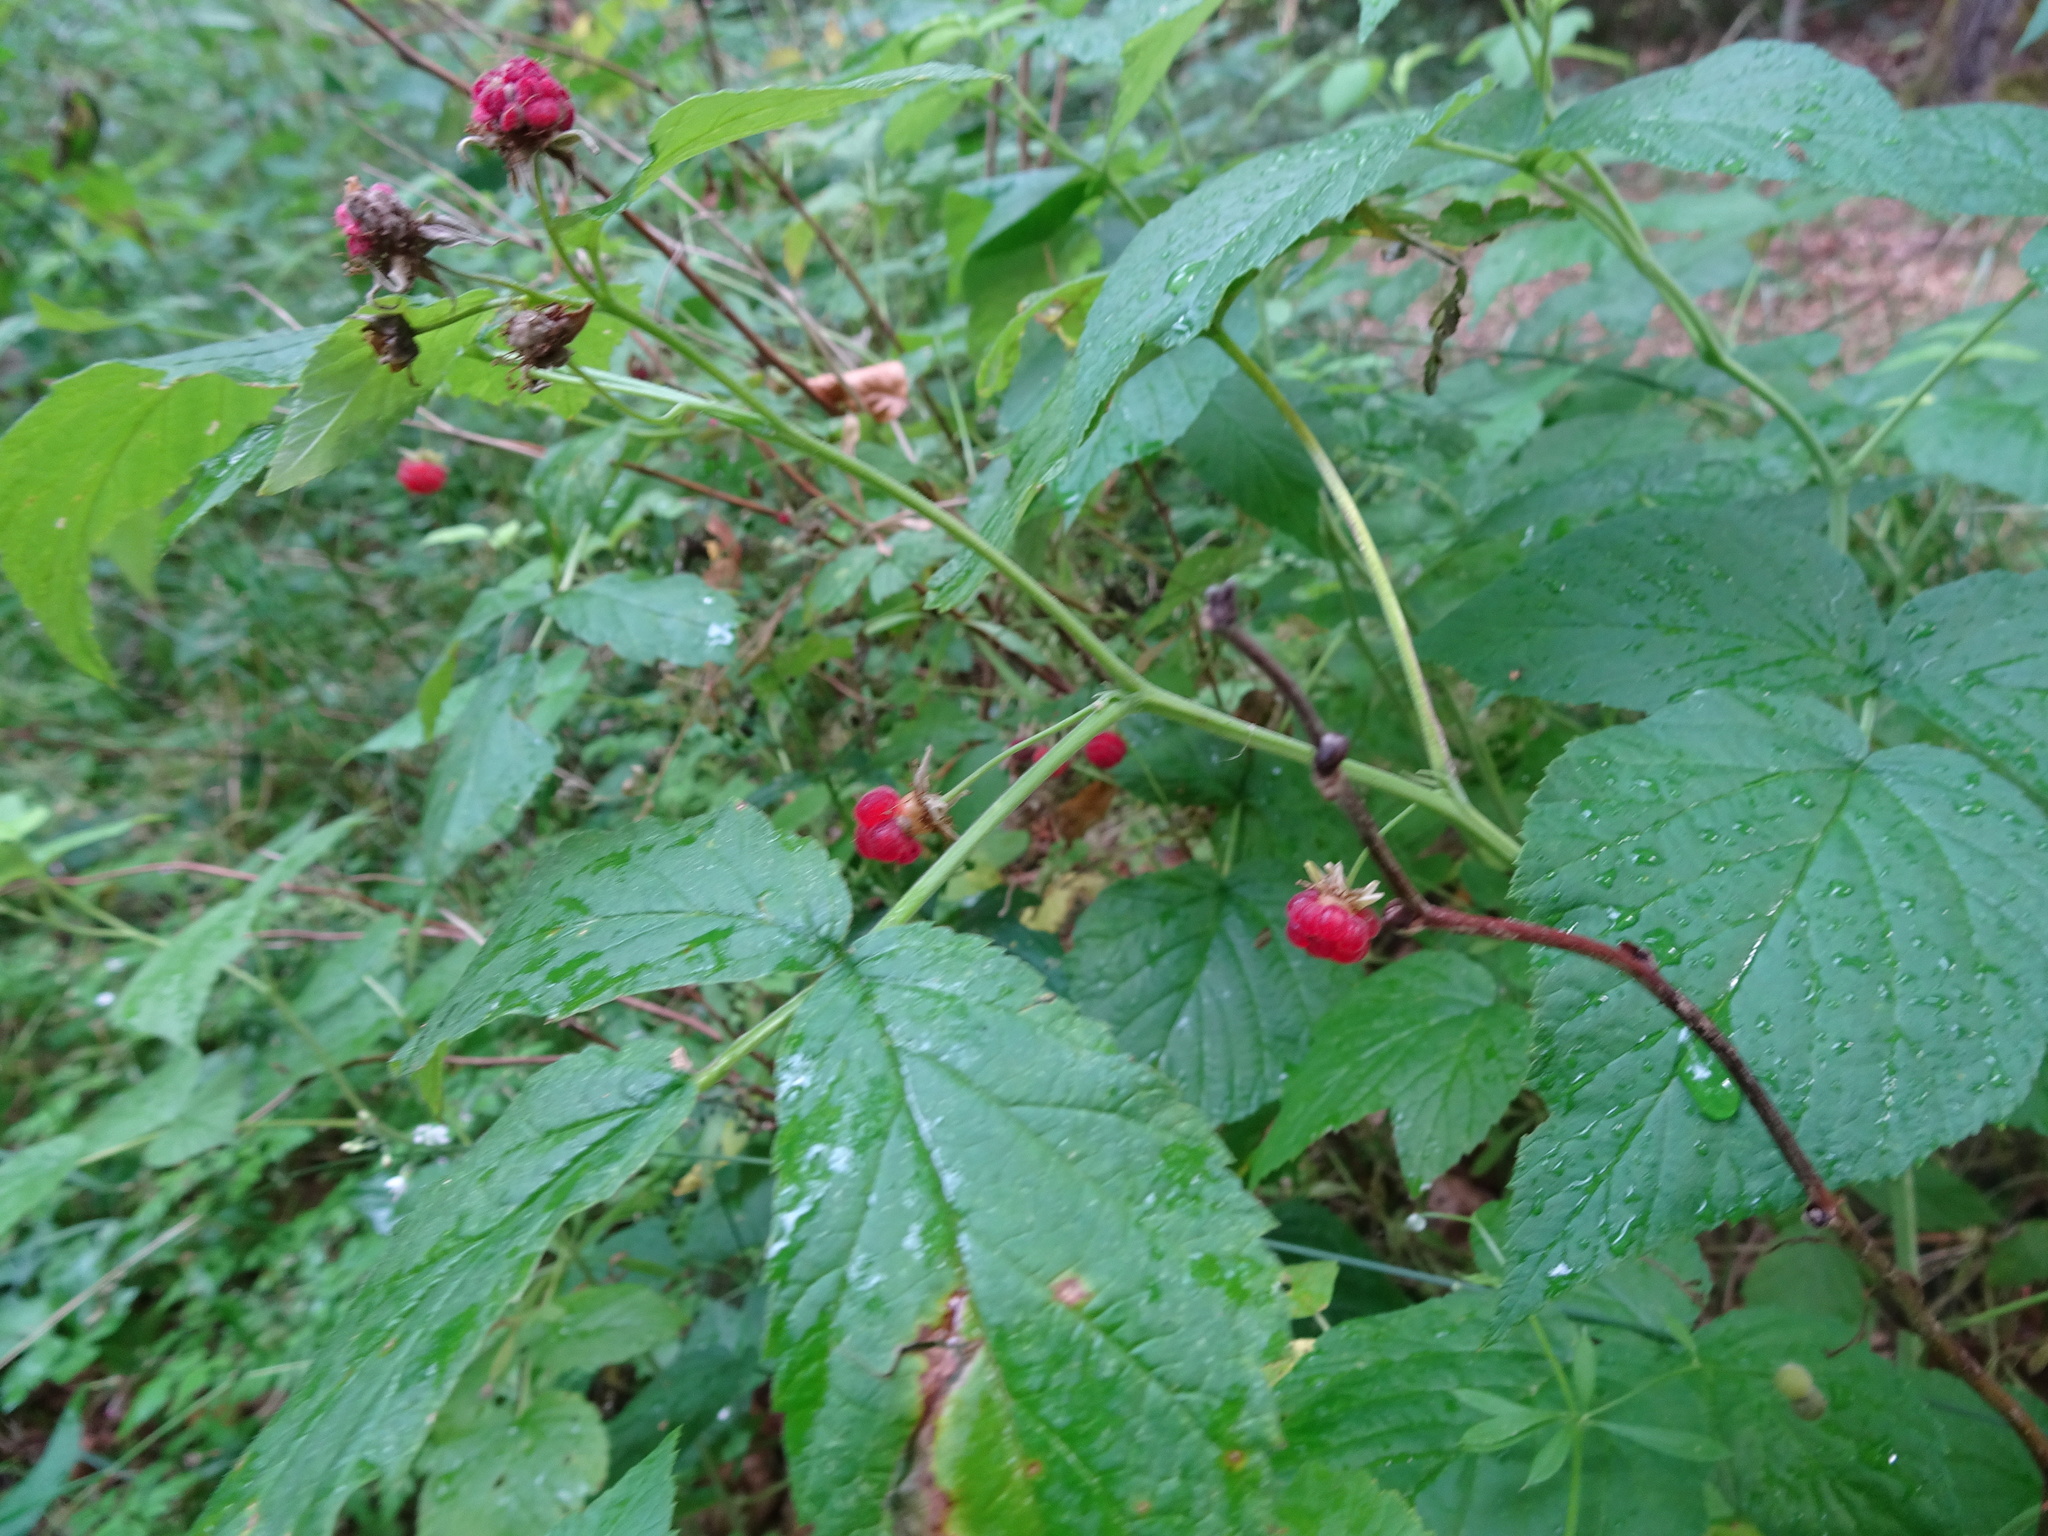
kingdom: Plantae
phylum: Tracheophyta
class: Magnoliopsida
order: Rosales
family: Rosaceae
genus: Rubus
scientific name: Rubus idaeus
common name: Raspberry
